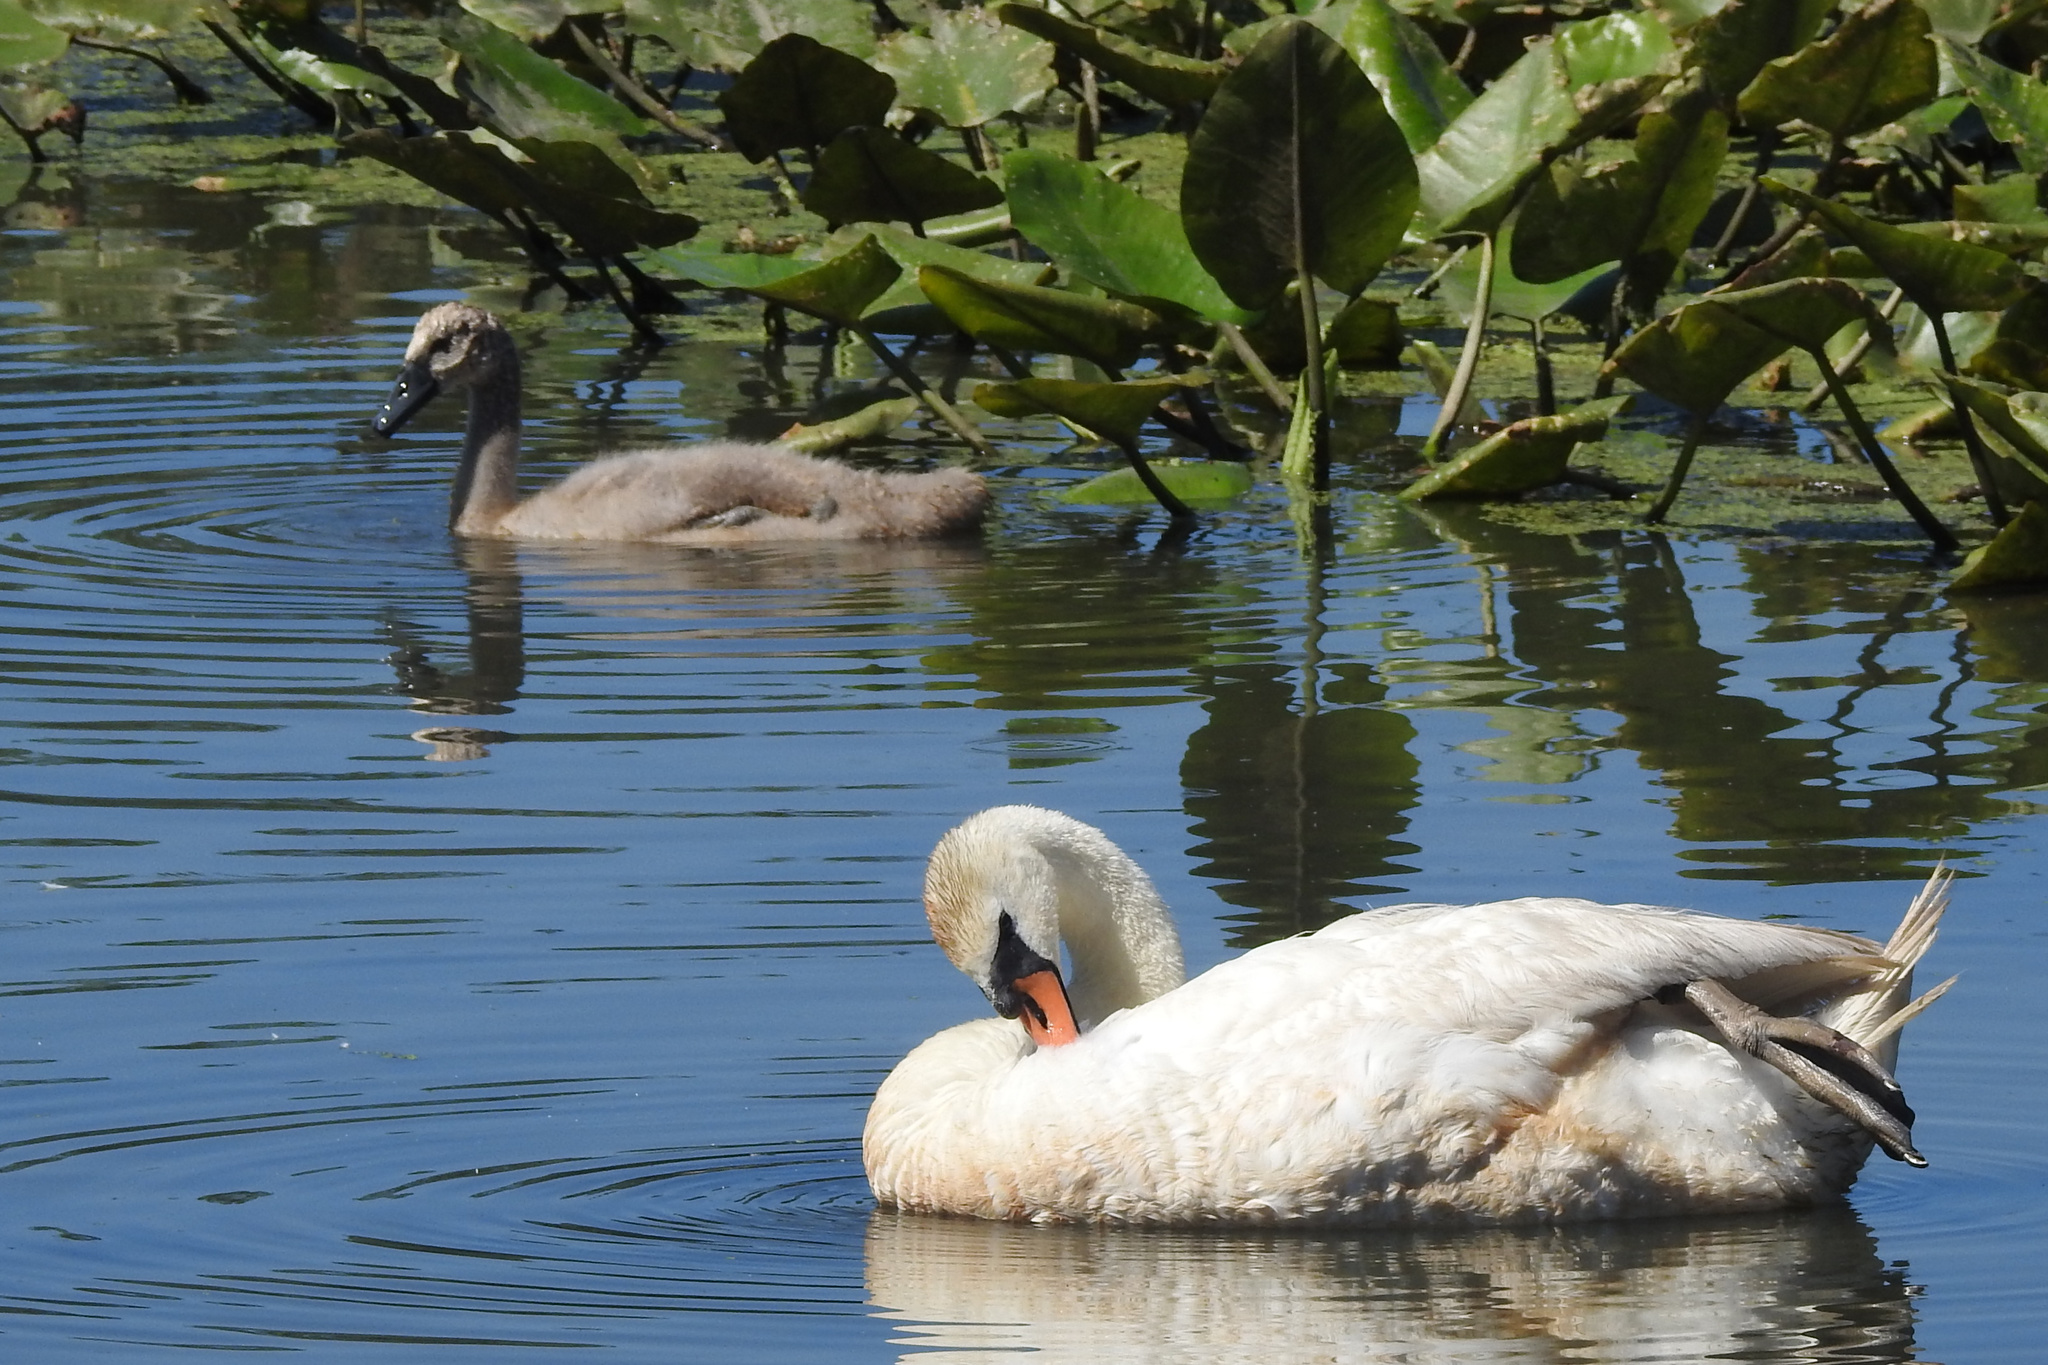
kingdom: Animalia
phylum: Chordata
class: Aves
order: Anseriformes
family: Anatidae
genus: Cygnus
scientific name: Cygnus olor
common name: Mute swan
